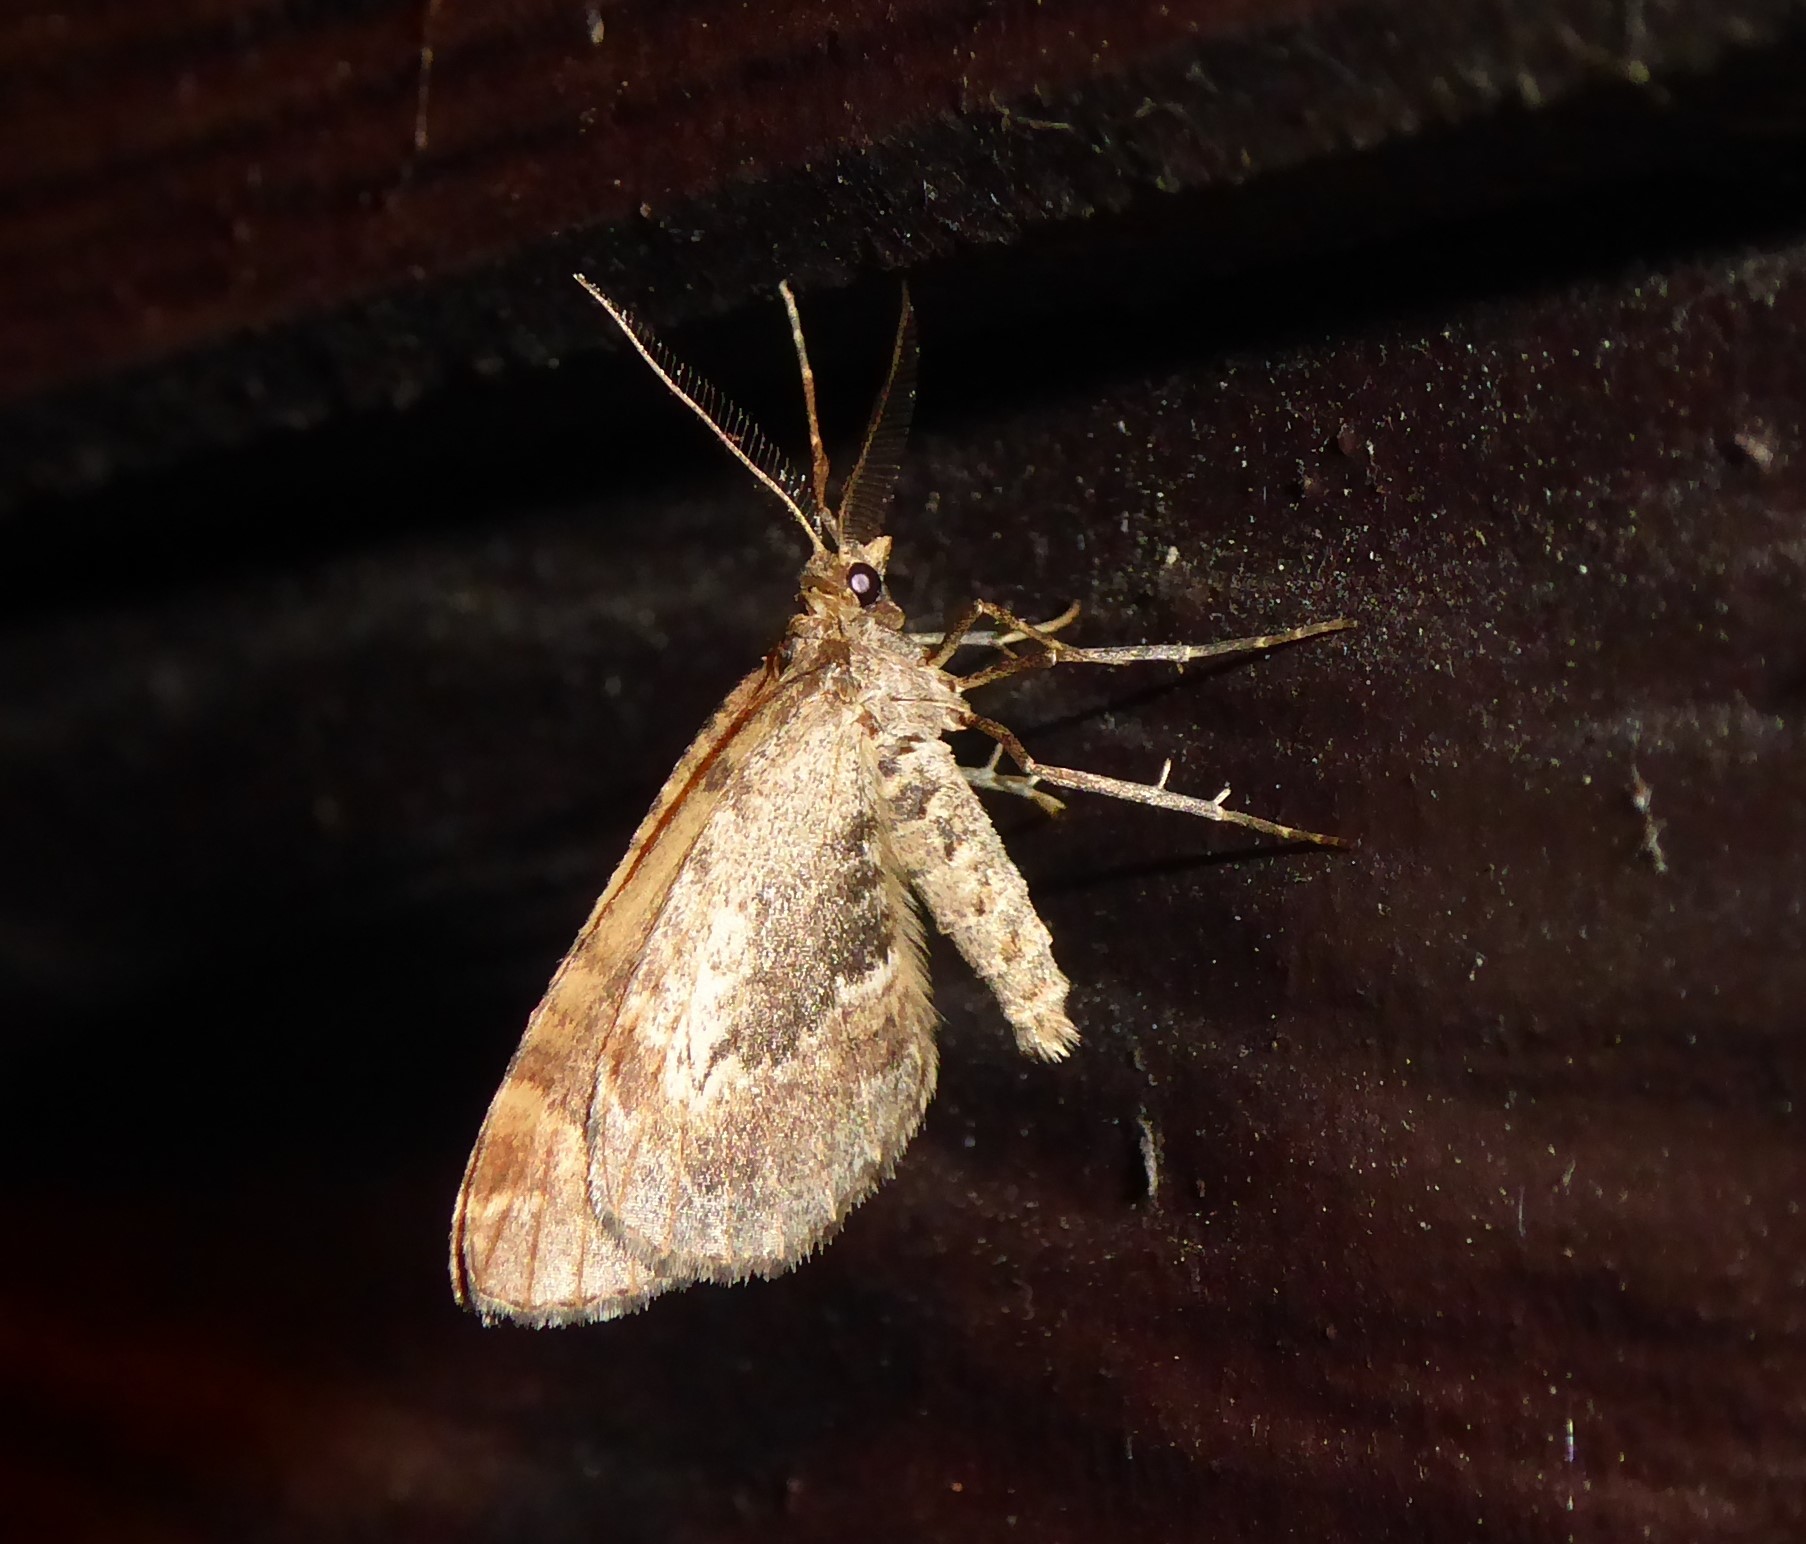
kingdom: Animalia
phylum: Arthropoda
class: Insecta
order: Lepidoptera
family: Geometridae
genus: Asaphodes
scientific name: Asaphodes aegrota
